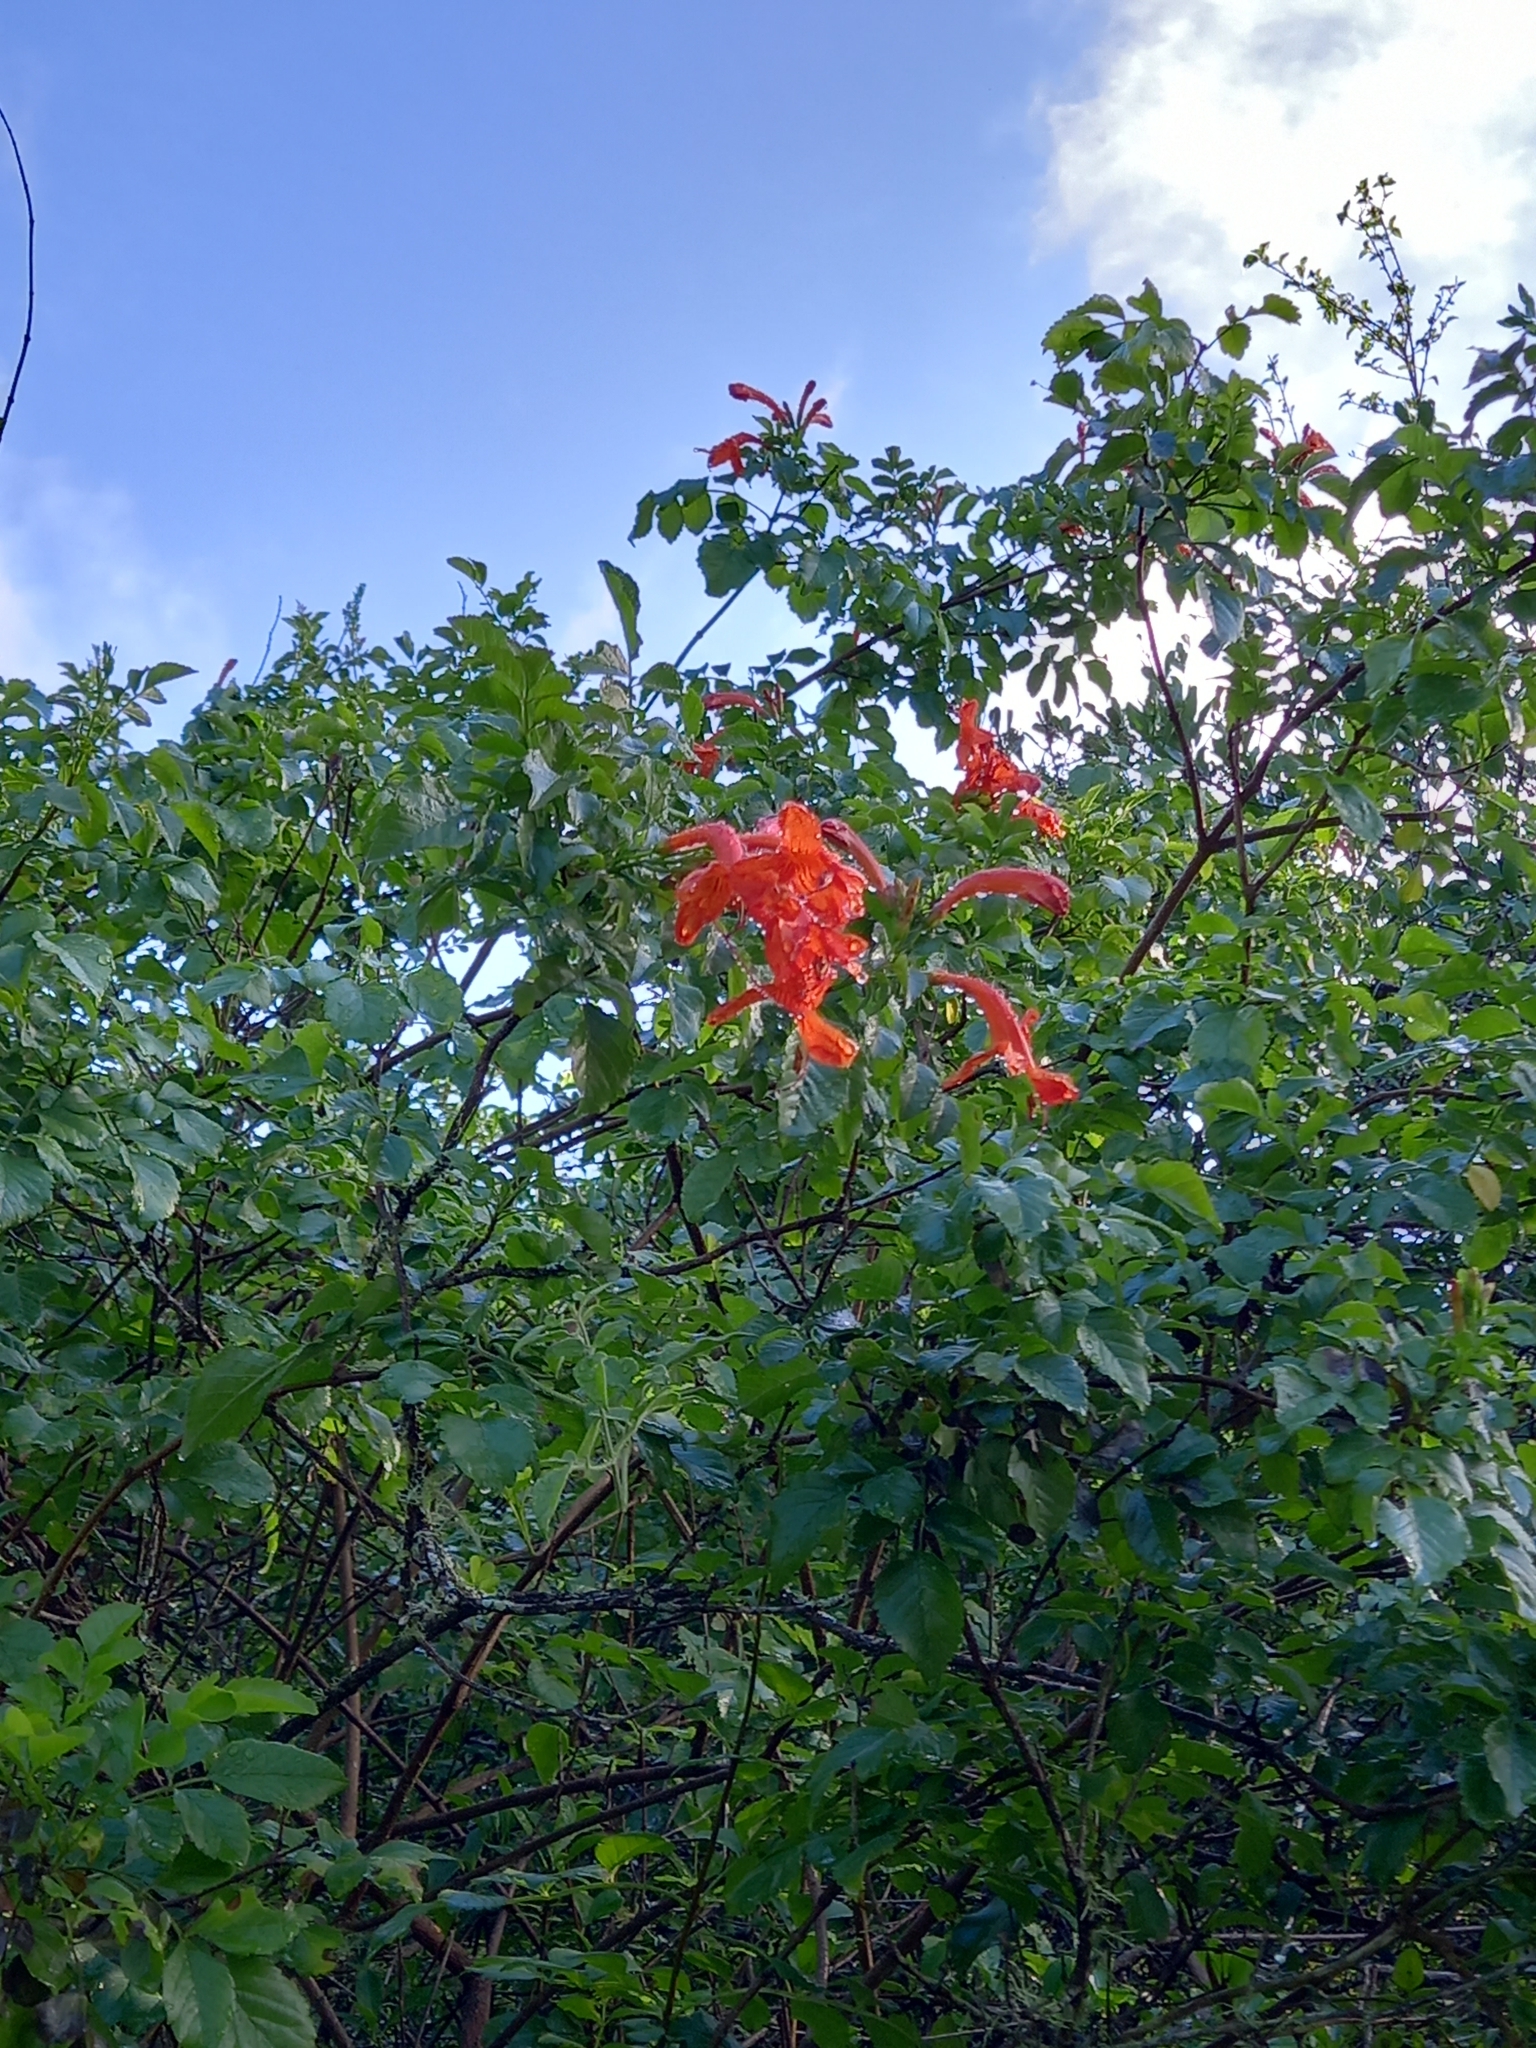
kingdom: Plantae
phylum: Tracheophyta
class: Magnoliopsida
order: Lamiales
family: Bignoniaceae
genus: Tecomaria
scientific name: Tecomaria capensis
